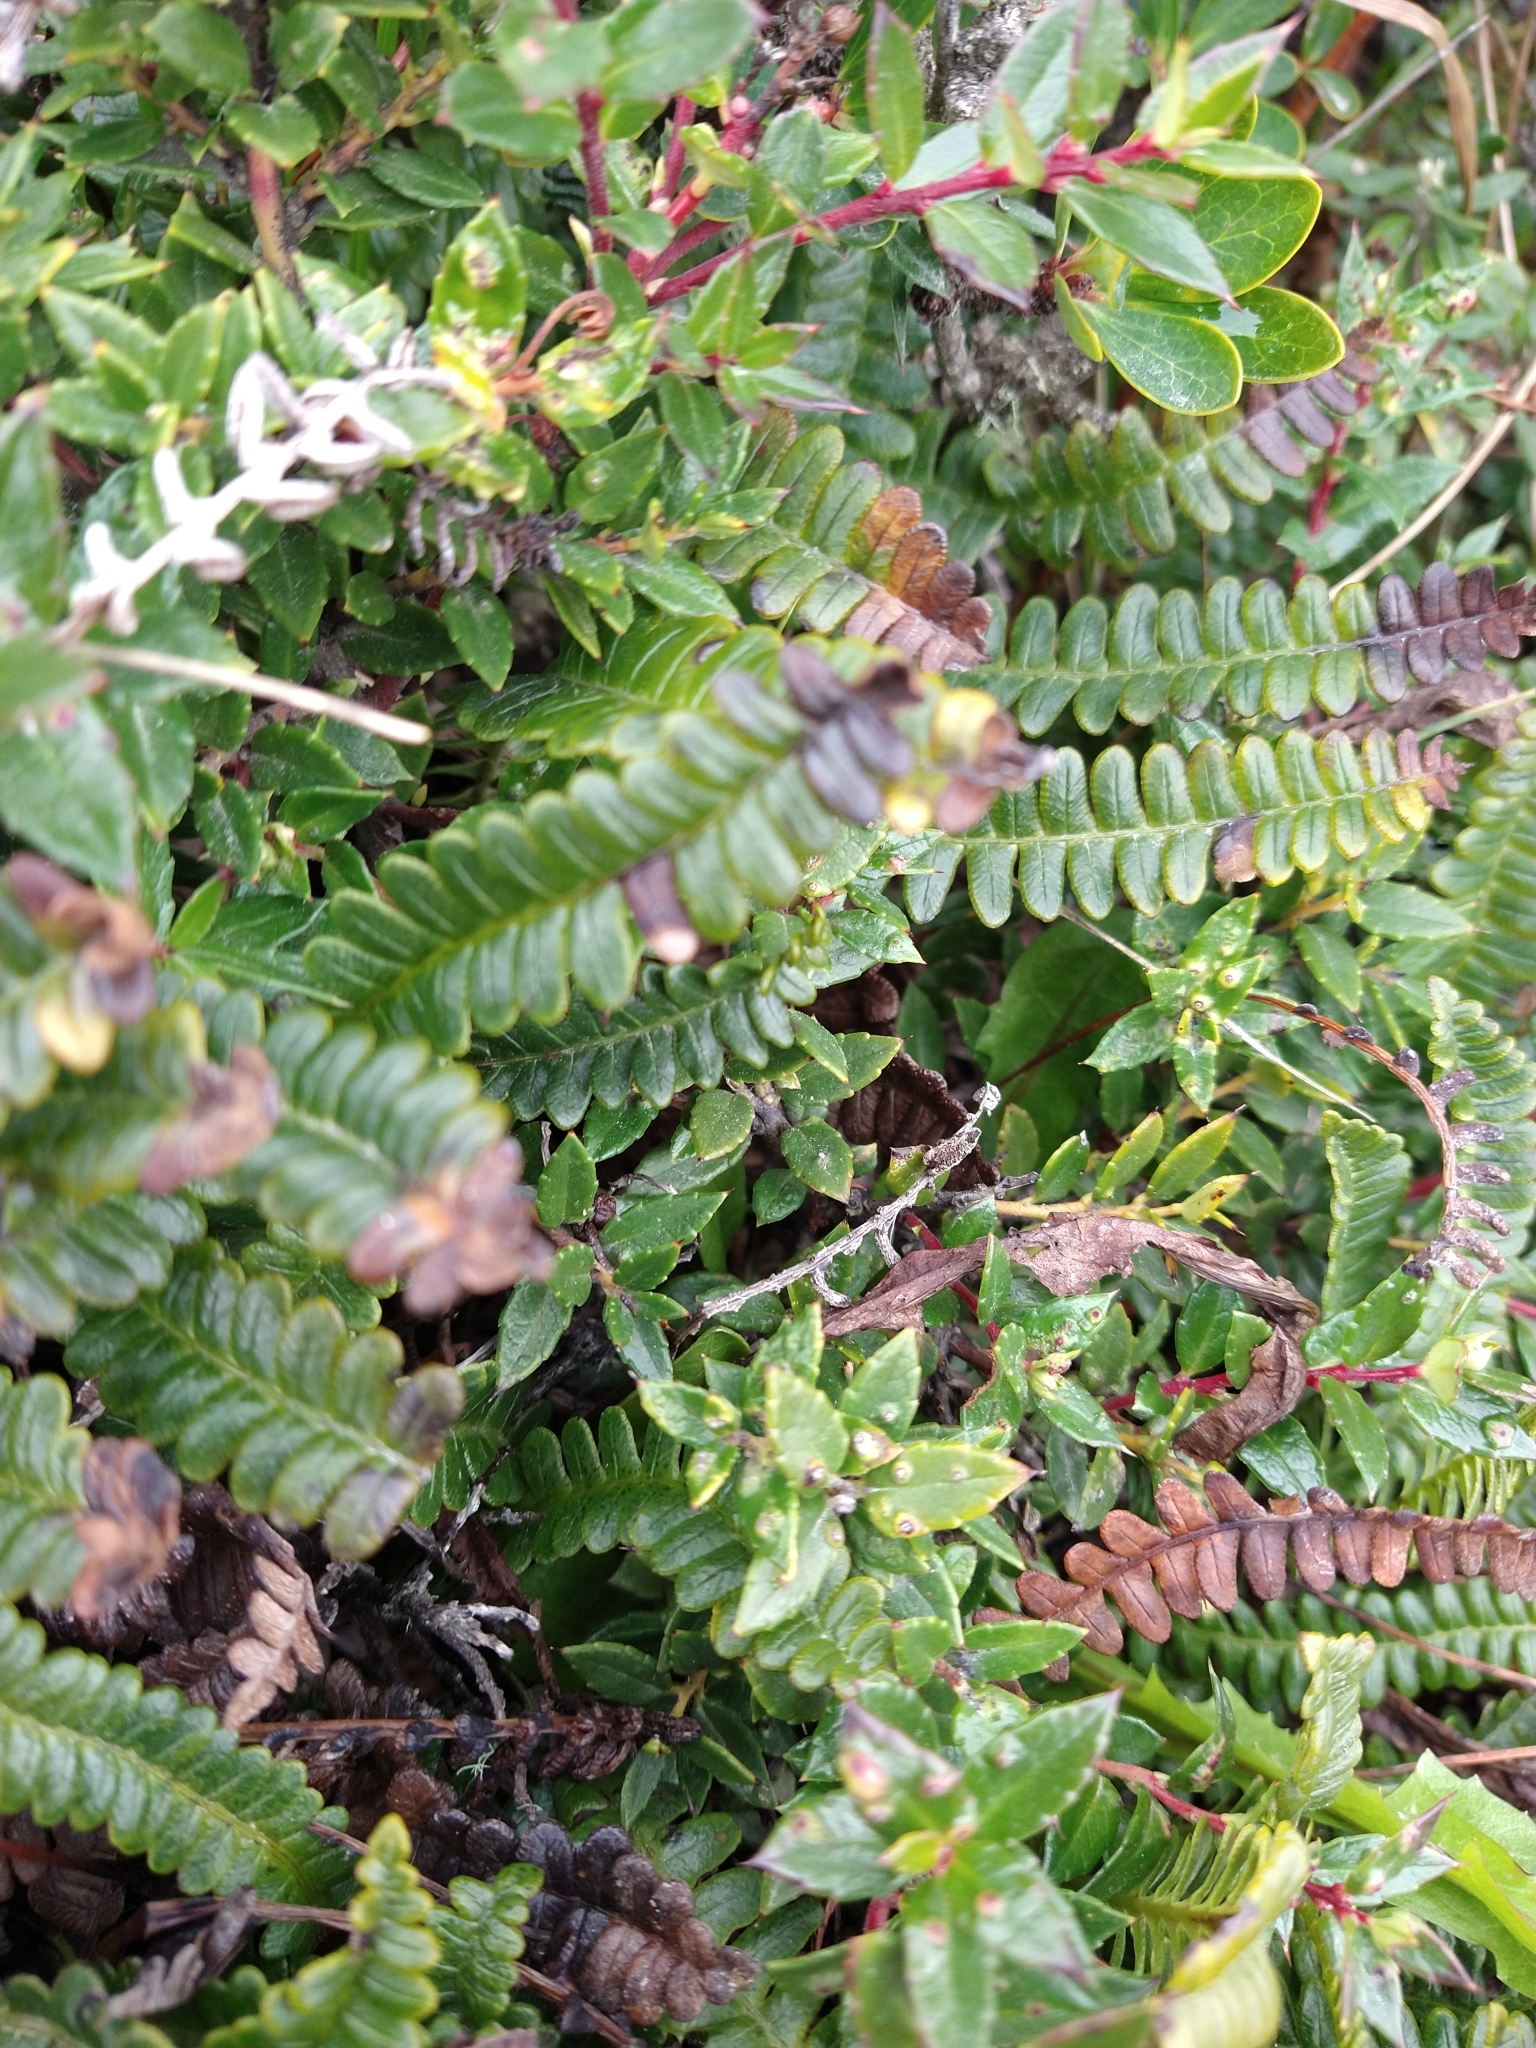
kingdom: Plantae
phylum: Tracheophyta
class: Polypodiopsida
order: Polypodiales
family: Blechnaceae
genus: Austroblechnum
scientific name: Austroblechnum penna-marina
